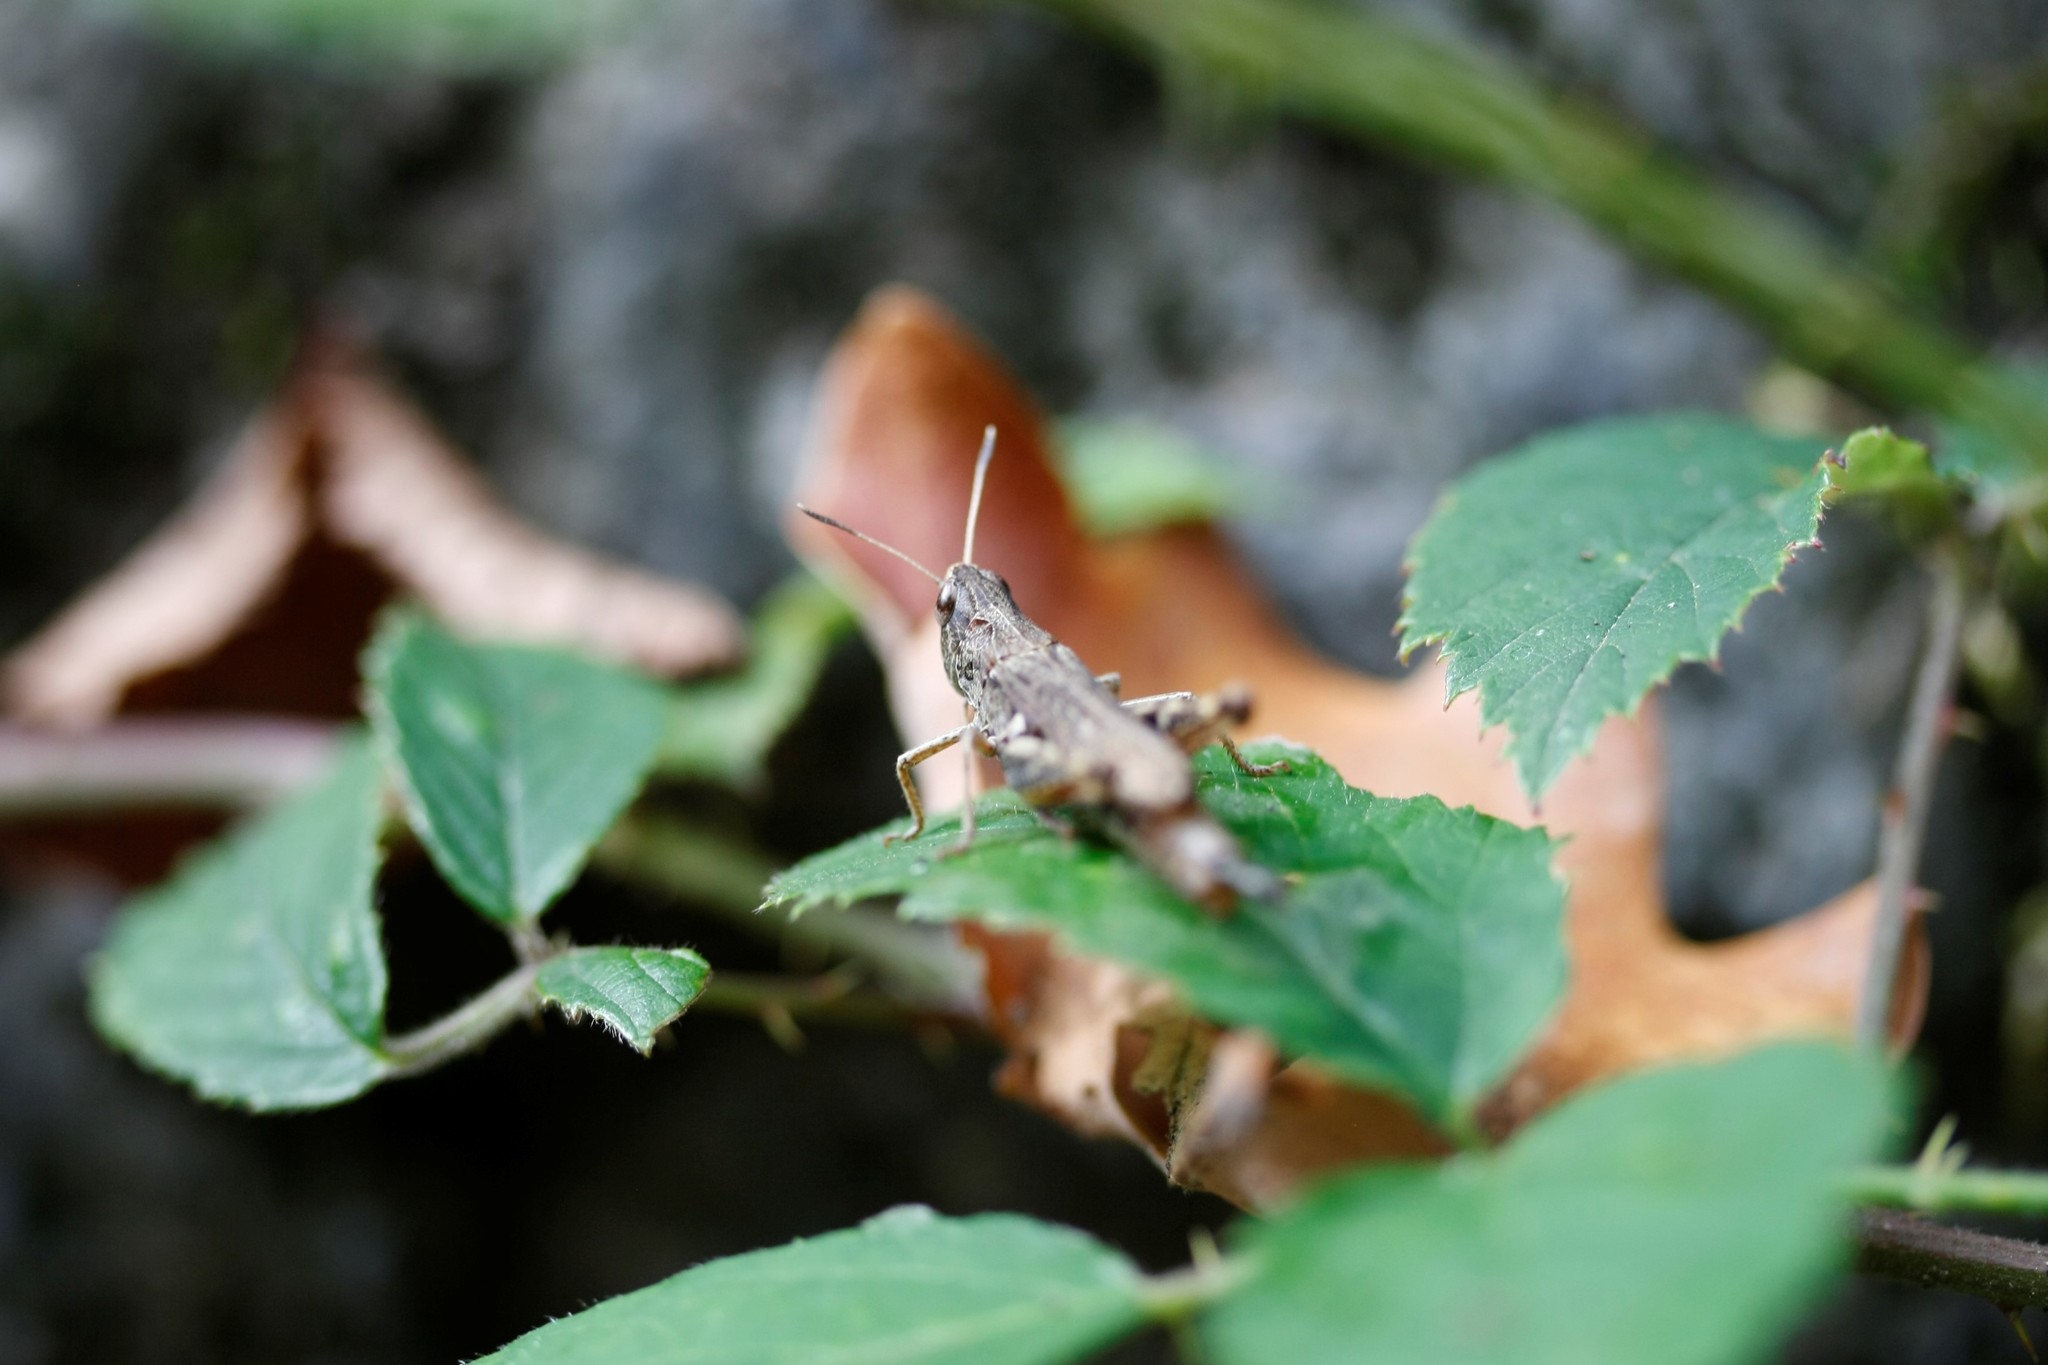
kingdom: Animalia
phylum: Arthropoda
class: Insecta
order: Orthoptera
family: Acrididae
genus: Gomphocerippus
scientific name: Gomphocerippus rufus
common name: Rufous grasshopper
